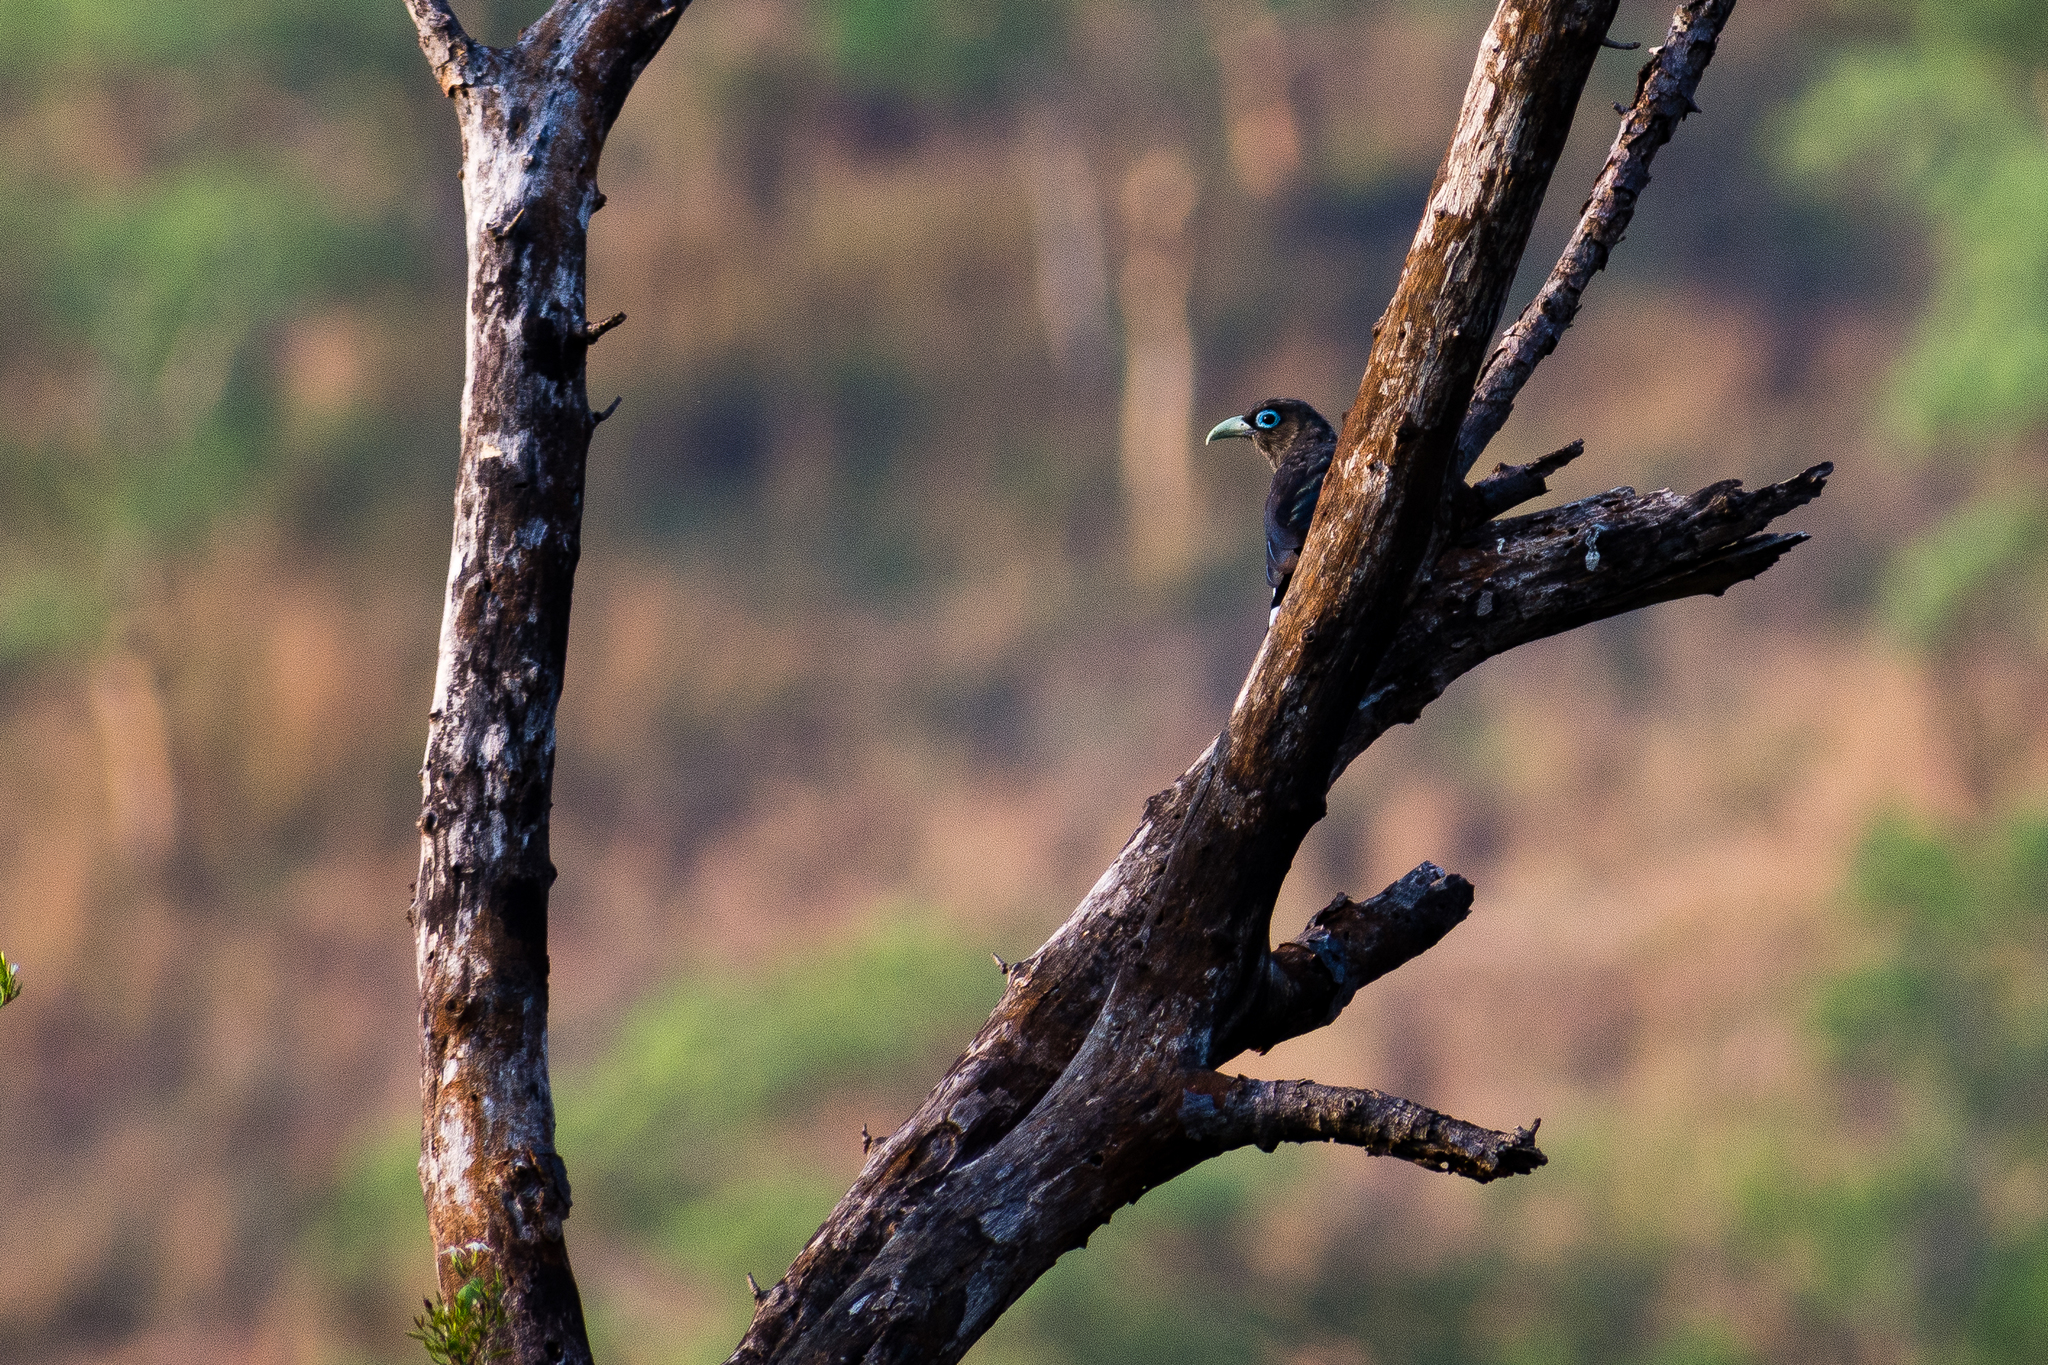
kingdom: Animalia
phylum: Chordata
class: Aves
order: Cuculiformes
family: Cuculidae
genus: Rhopodytes
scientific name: Rhopodytes viridirostris
